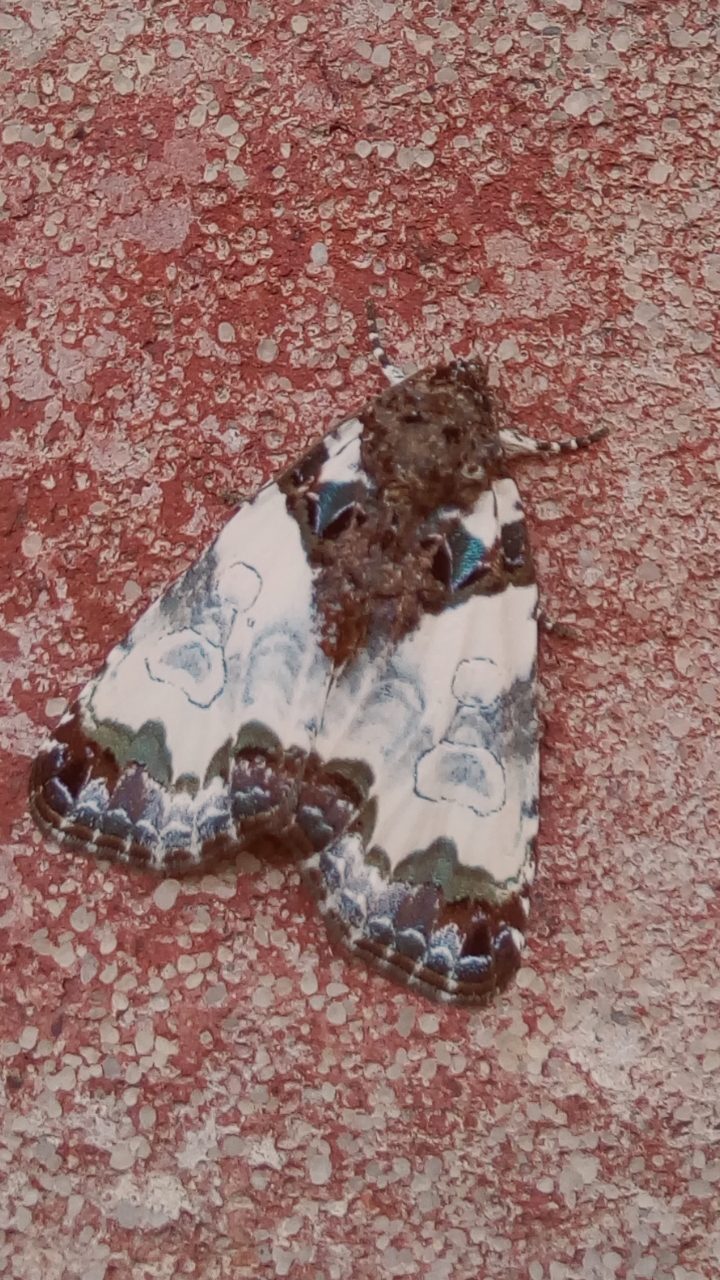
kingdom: Animalia
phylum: Arthropoda
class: Insecta
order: Lepidoptera
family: Noctuidae
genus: Cerma
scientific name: Cerma cerintha
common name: Tufted bird-dropping moth
